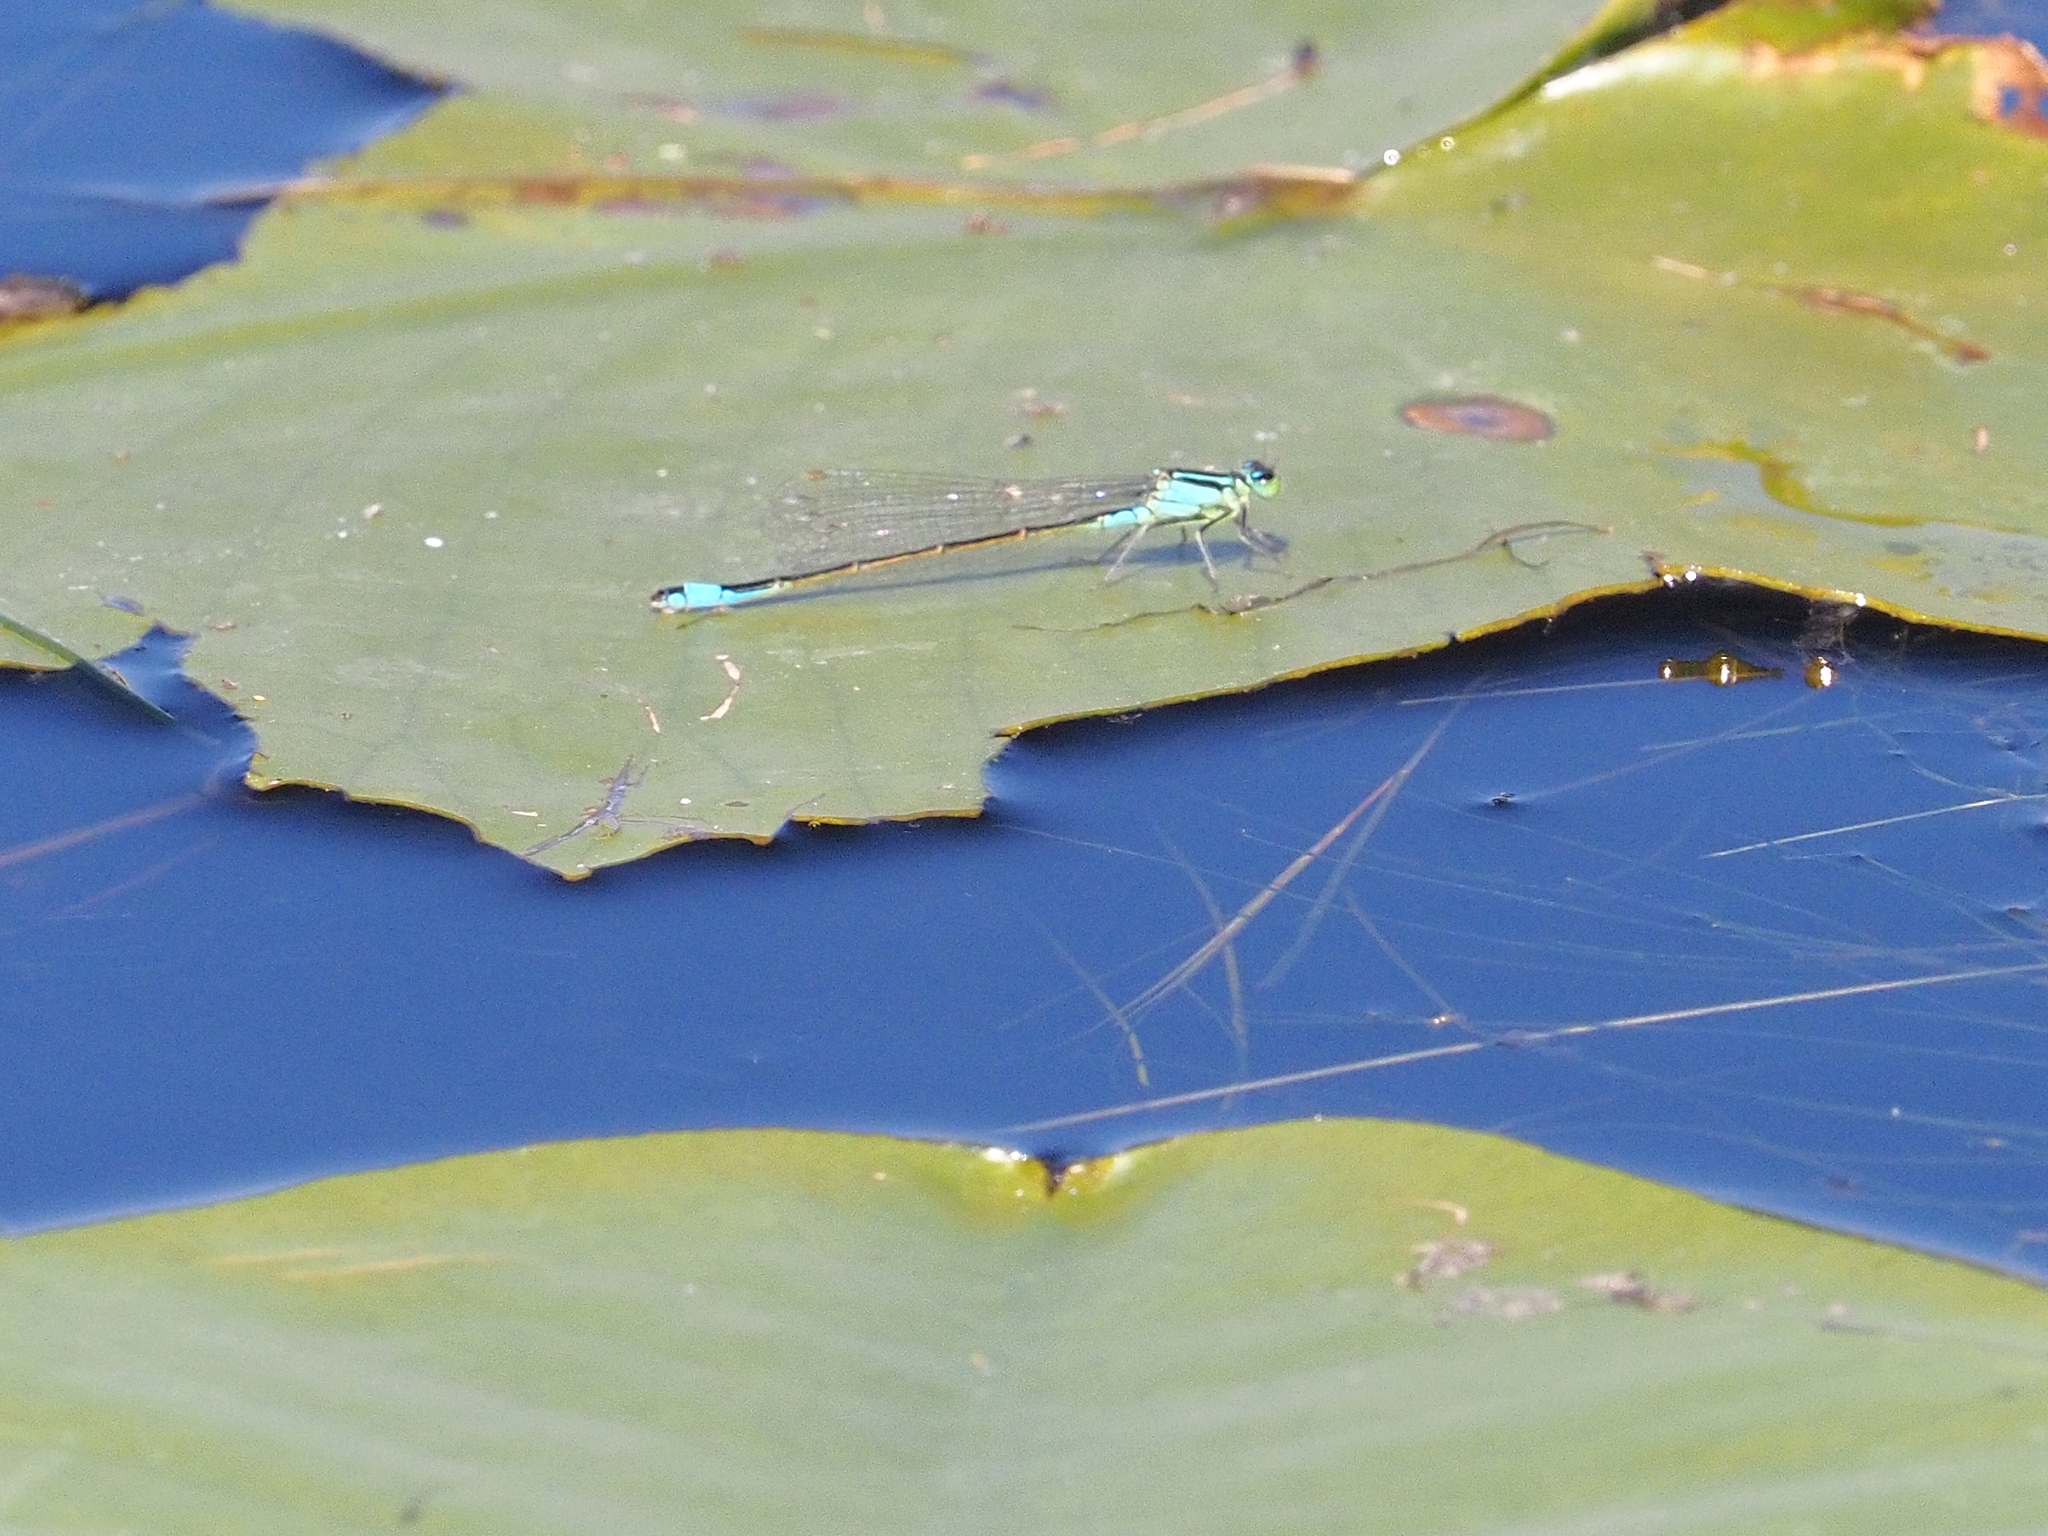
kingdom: Animalia
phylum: Arthropoda
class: Insecta
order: Odonata
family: Coenagrionidae
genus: Ischnura
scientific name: Ischnura elegans
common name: Blue-tailed damselfly
